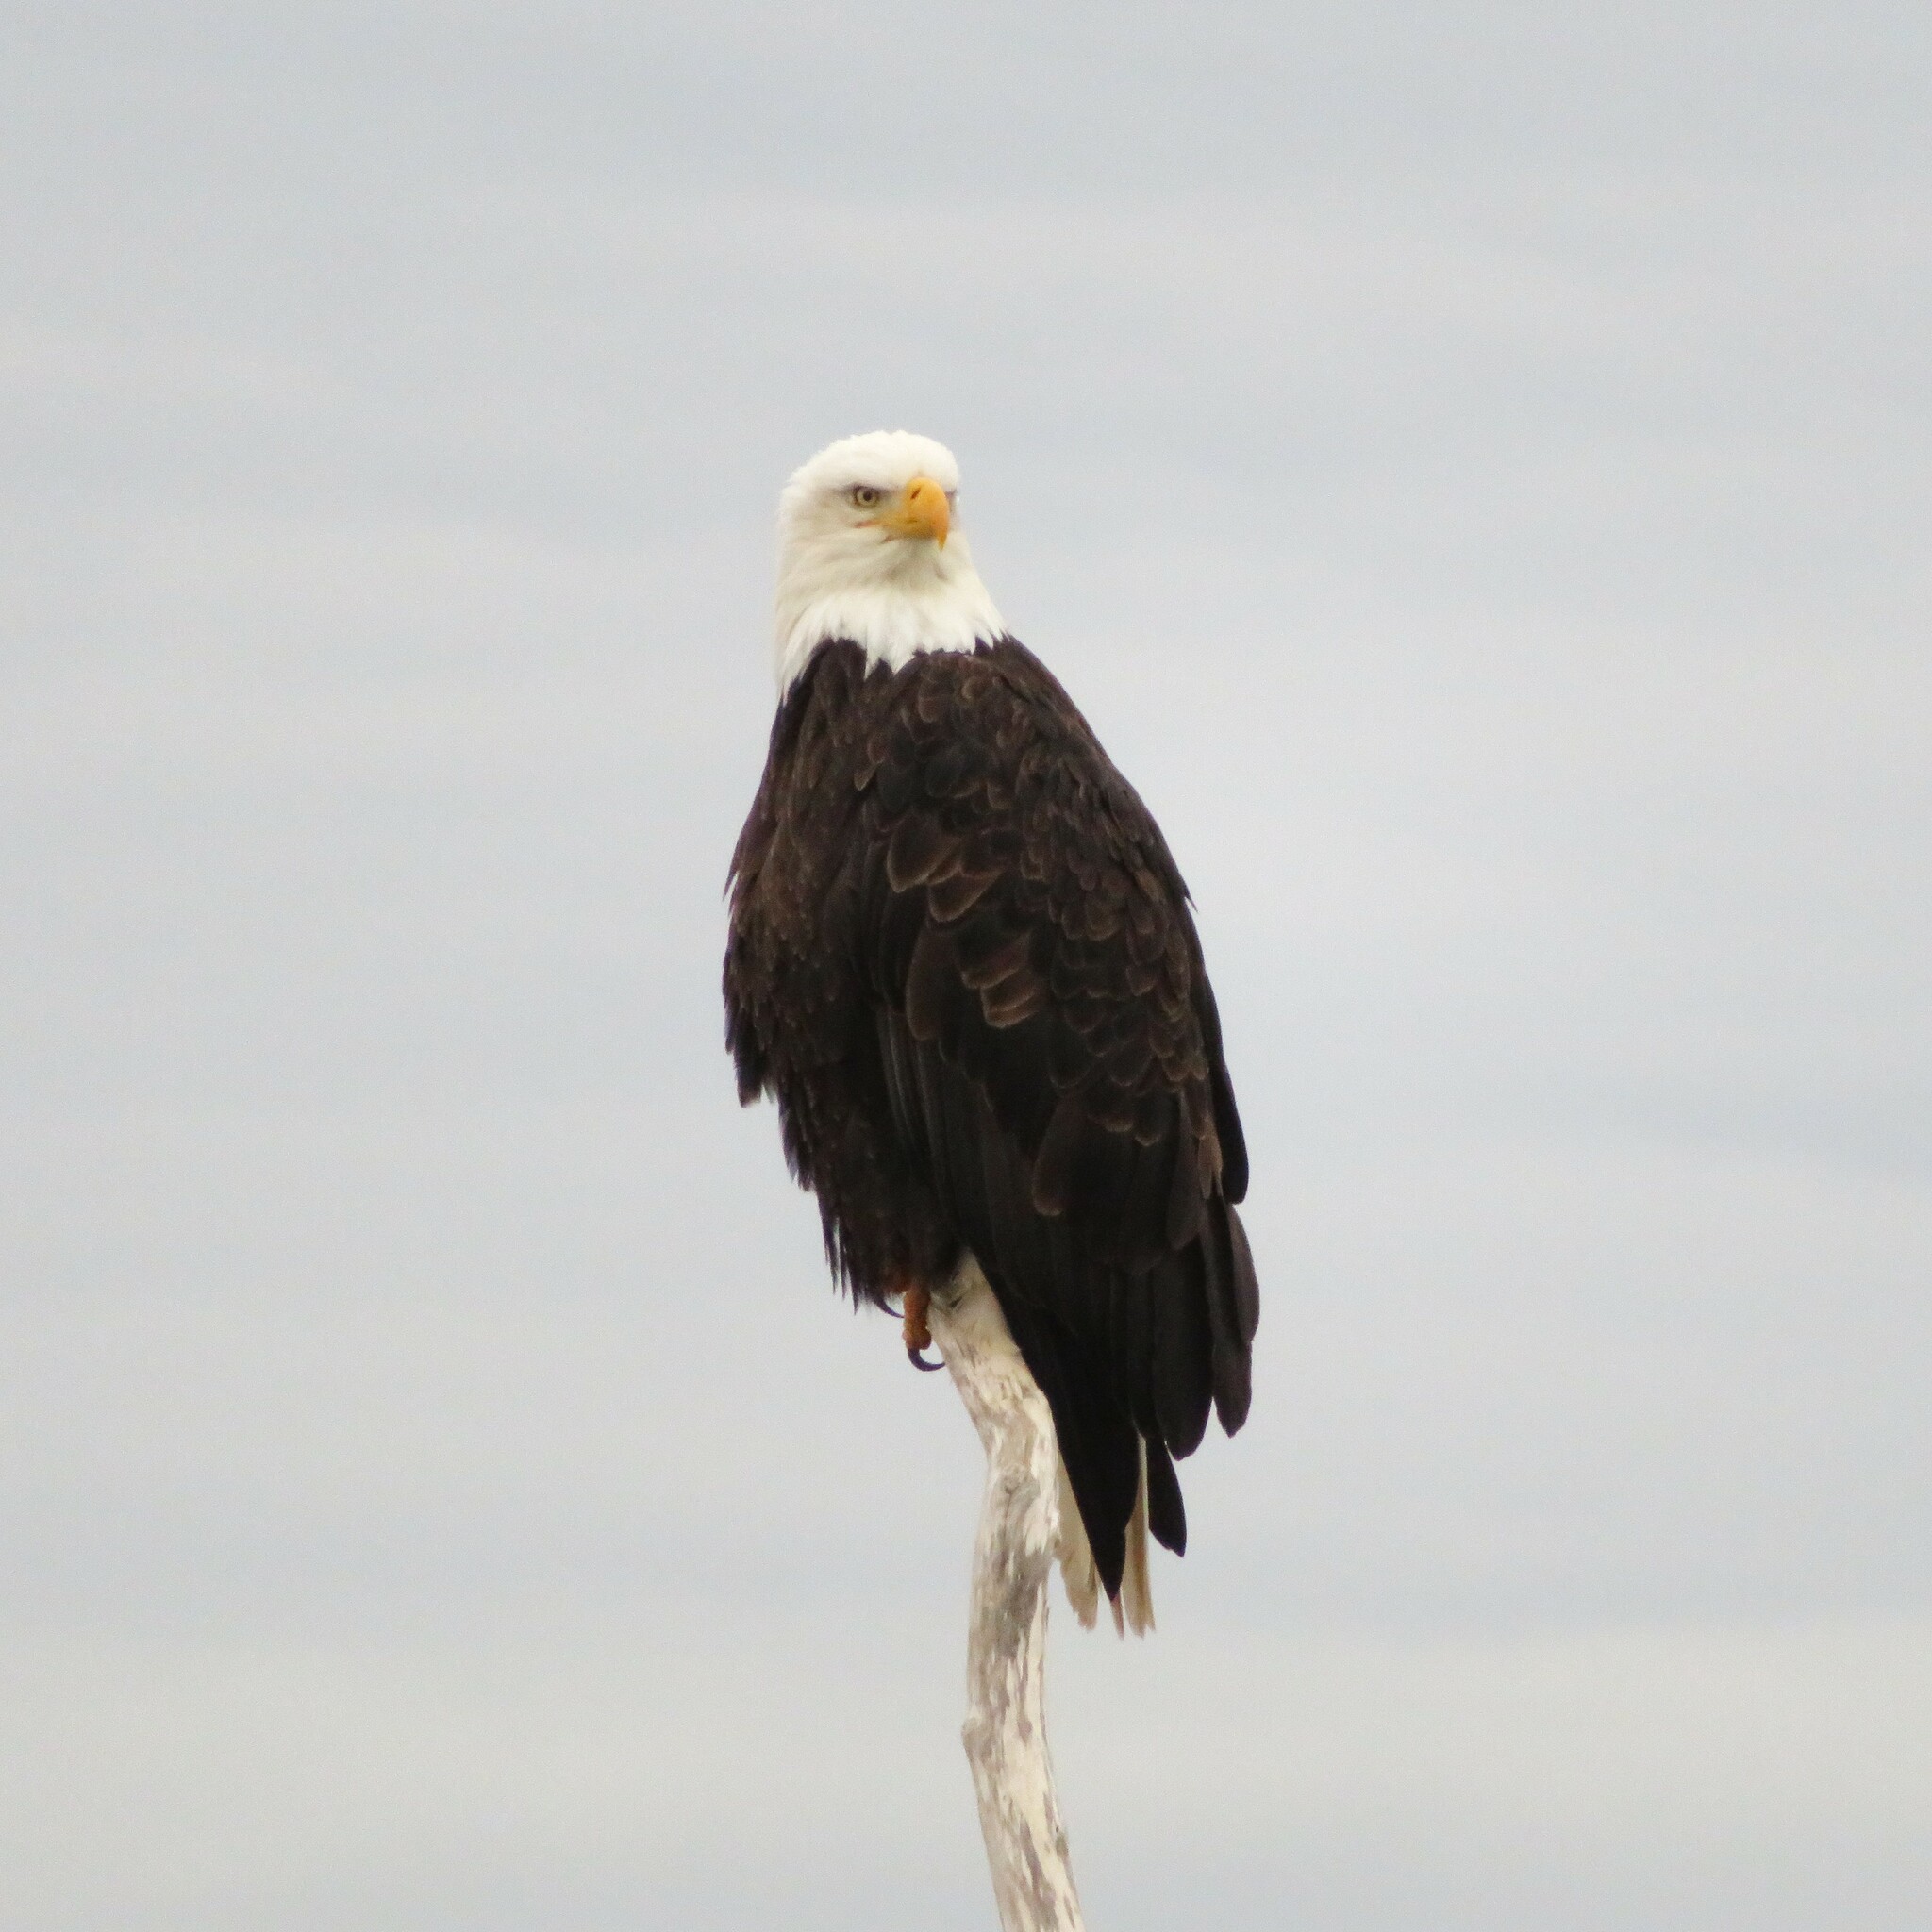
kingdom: Animalia
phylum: Chordata
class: Aves
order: Accipitriformes
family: Accipitridae
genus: Haliaeetus
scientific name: Haliaeetus leucocephalus
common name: Bald eagle
